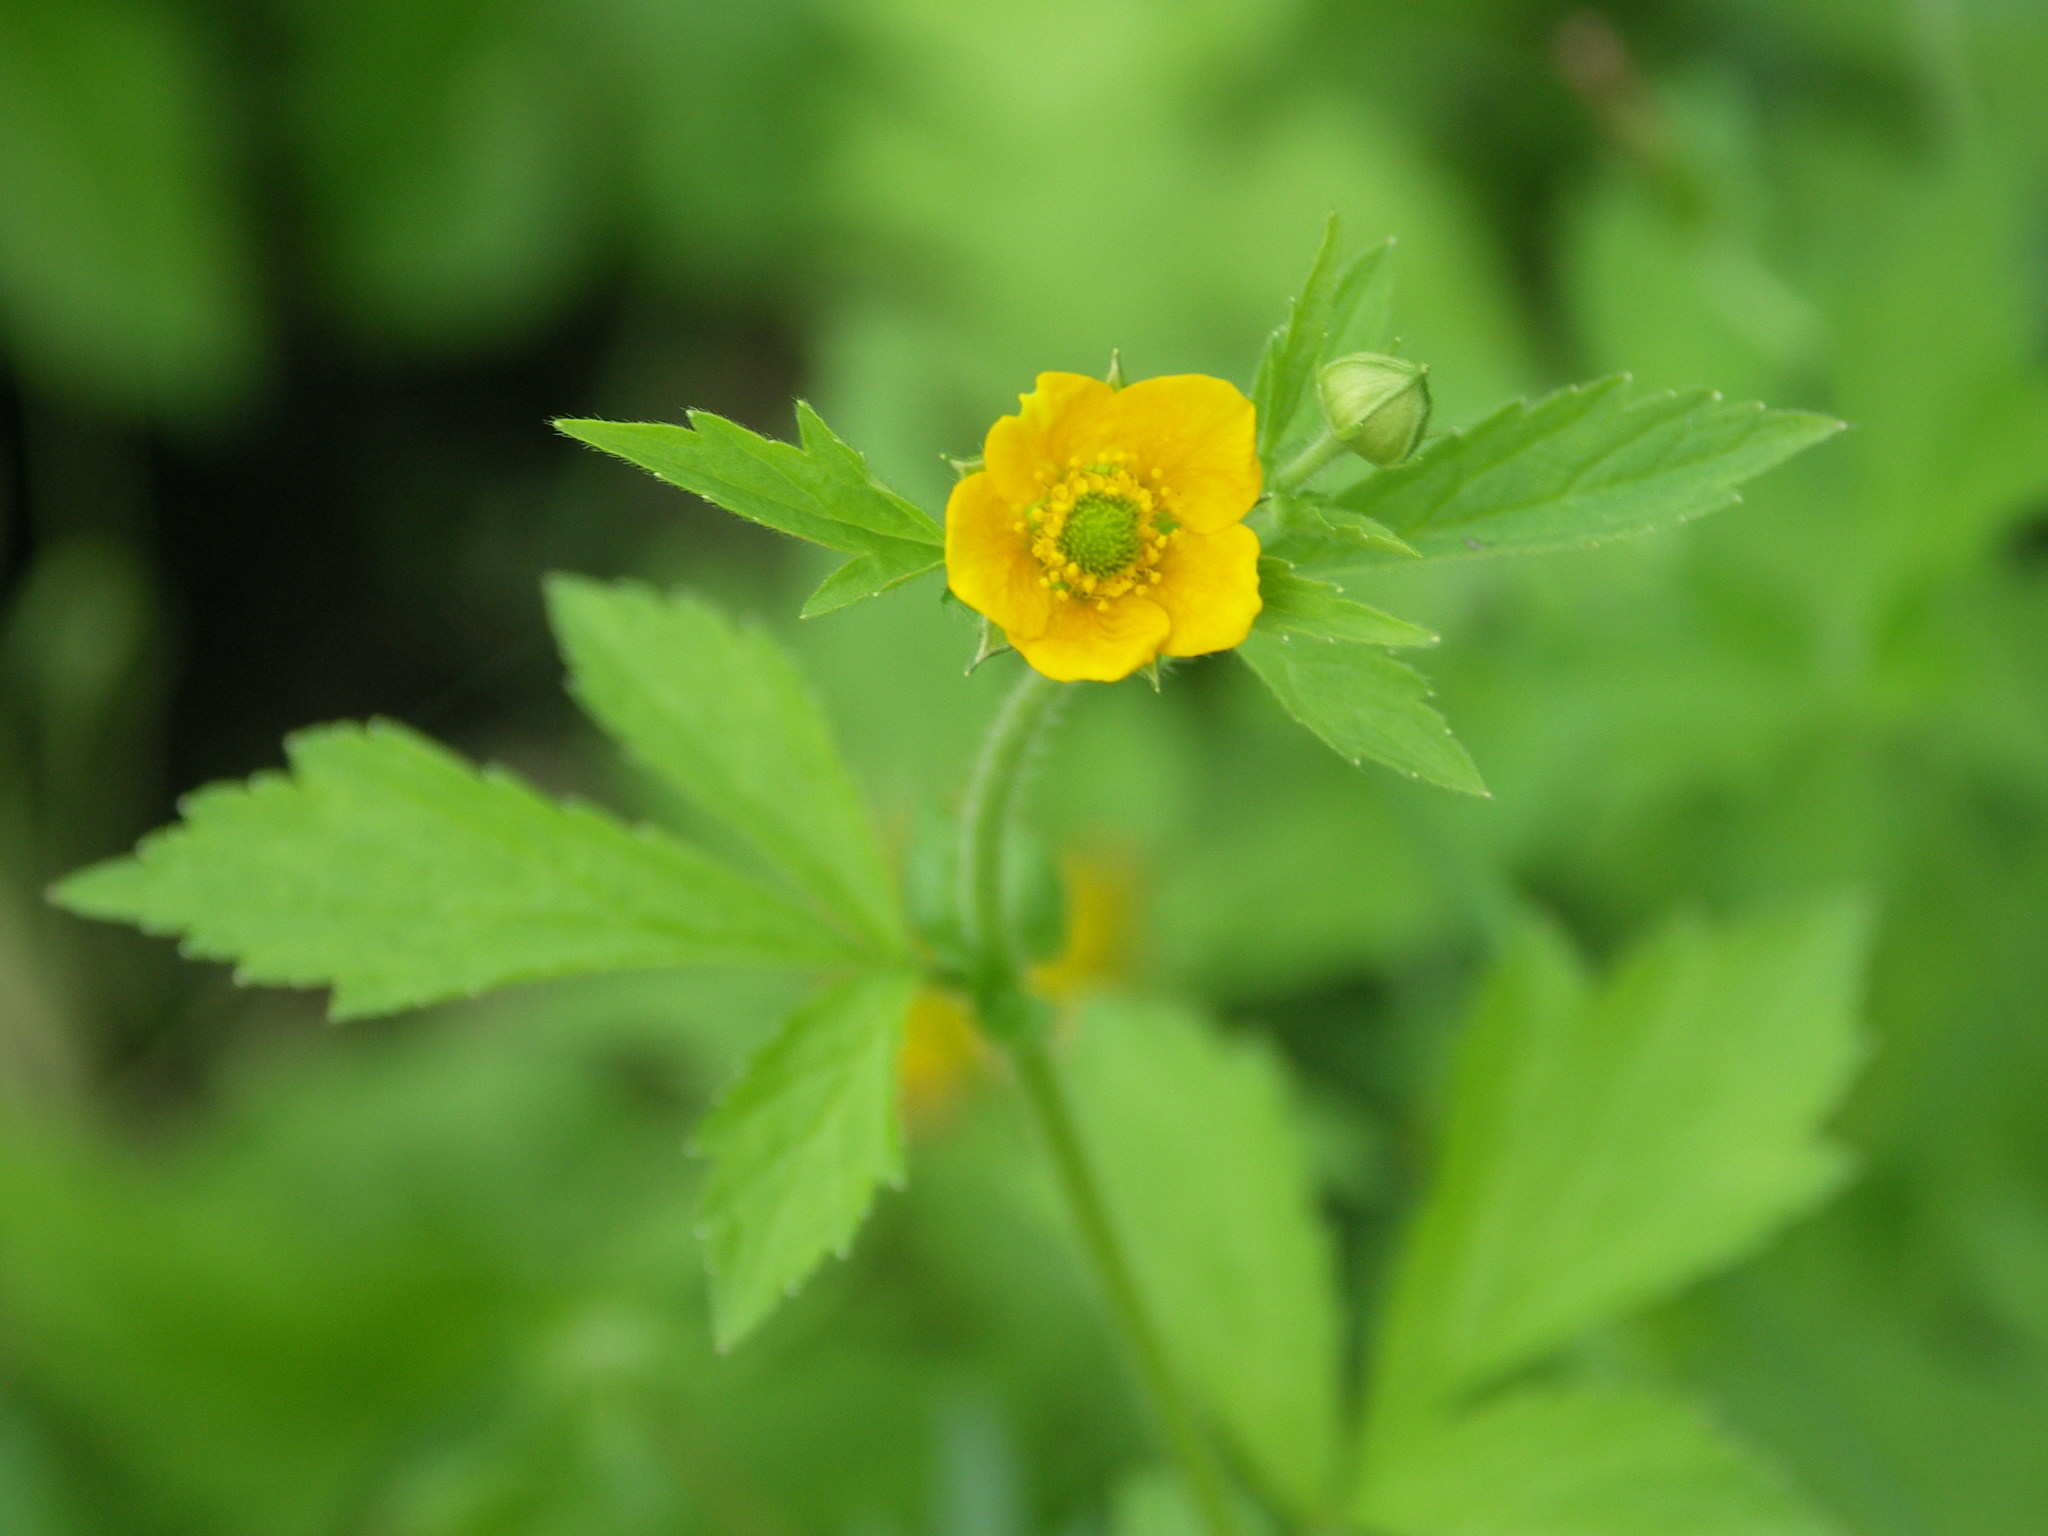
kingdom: Plantae
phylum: Tracheophyta
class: Magnoliopsida
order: Rosales
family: Rosaceae
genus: Geum
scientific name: Geum aleppicum
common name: Yellow avens
